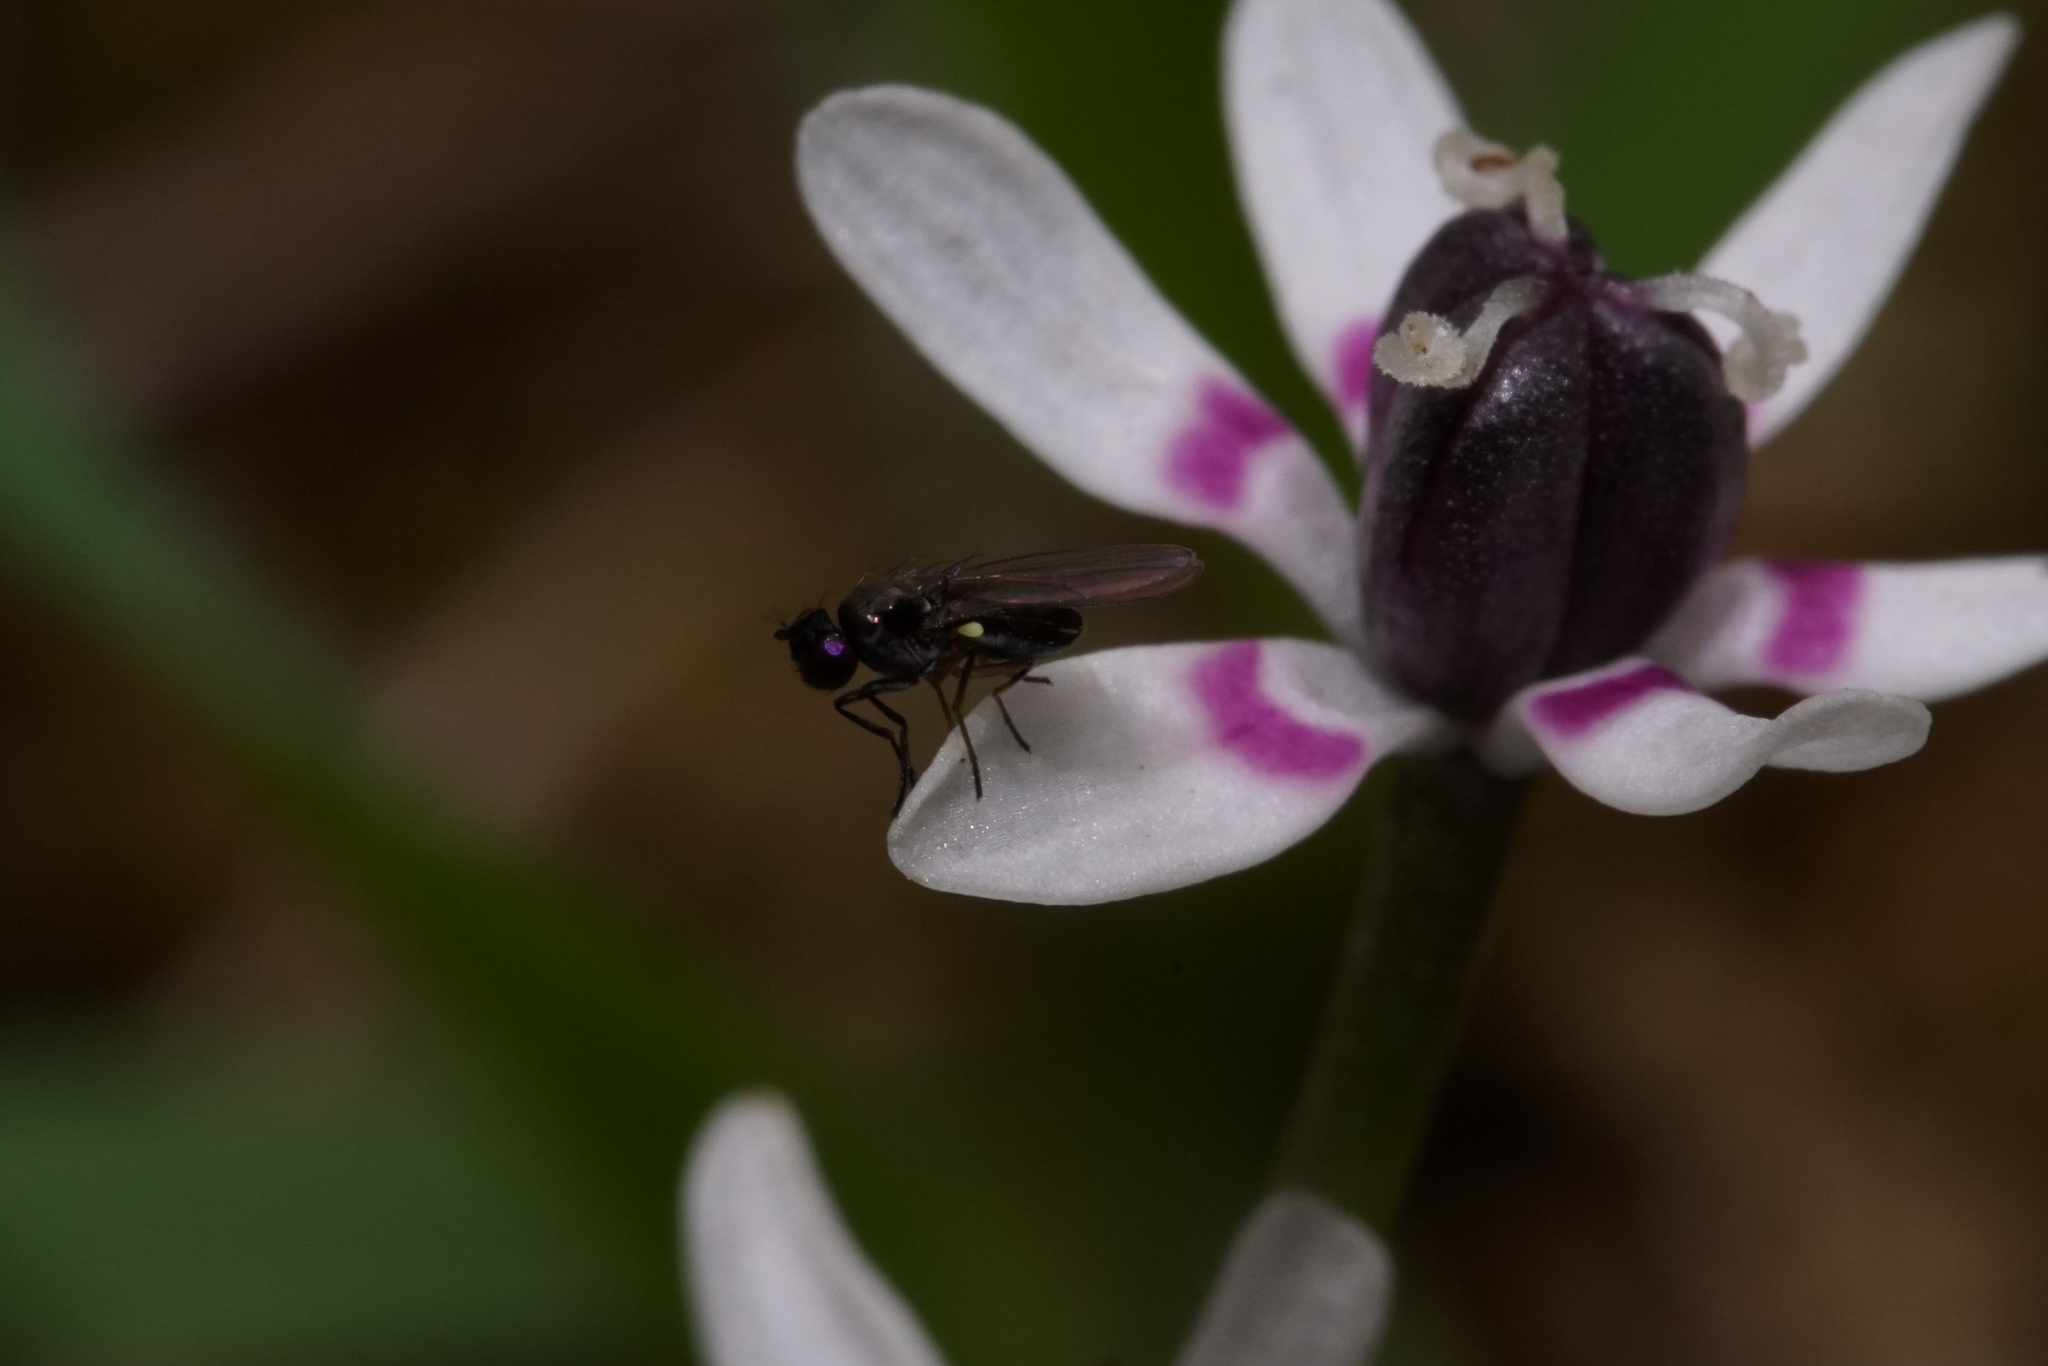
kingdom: Animalia
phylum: Arthropoda
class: Insecta
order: Diptera
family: Ephydridae
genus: Hydrellia
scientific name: Hydrellia tritici
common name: Shore fly
